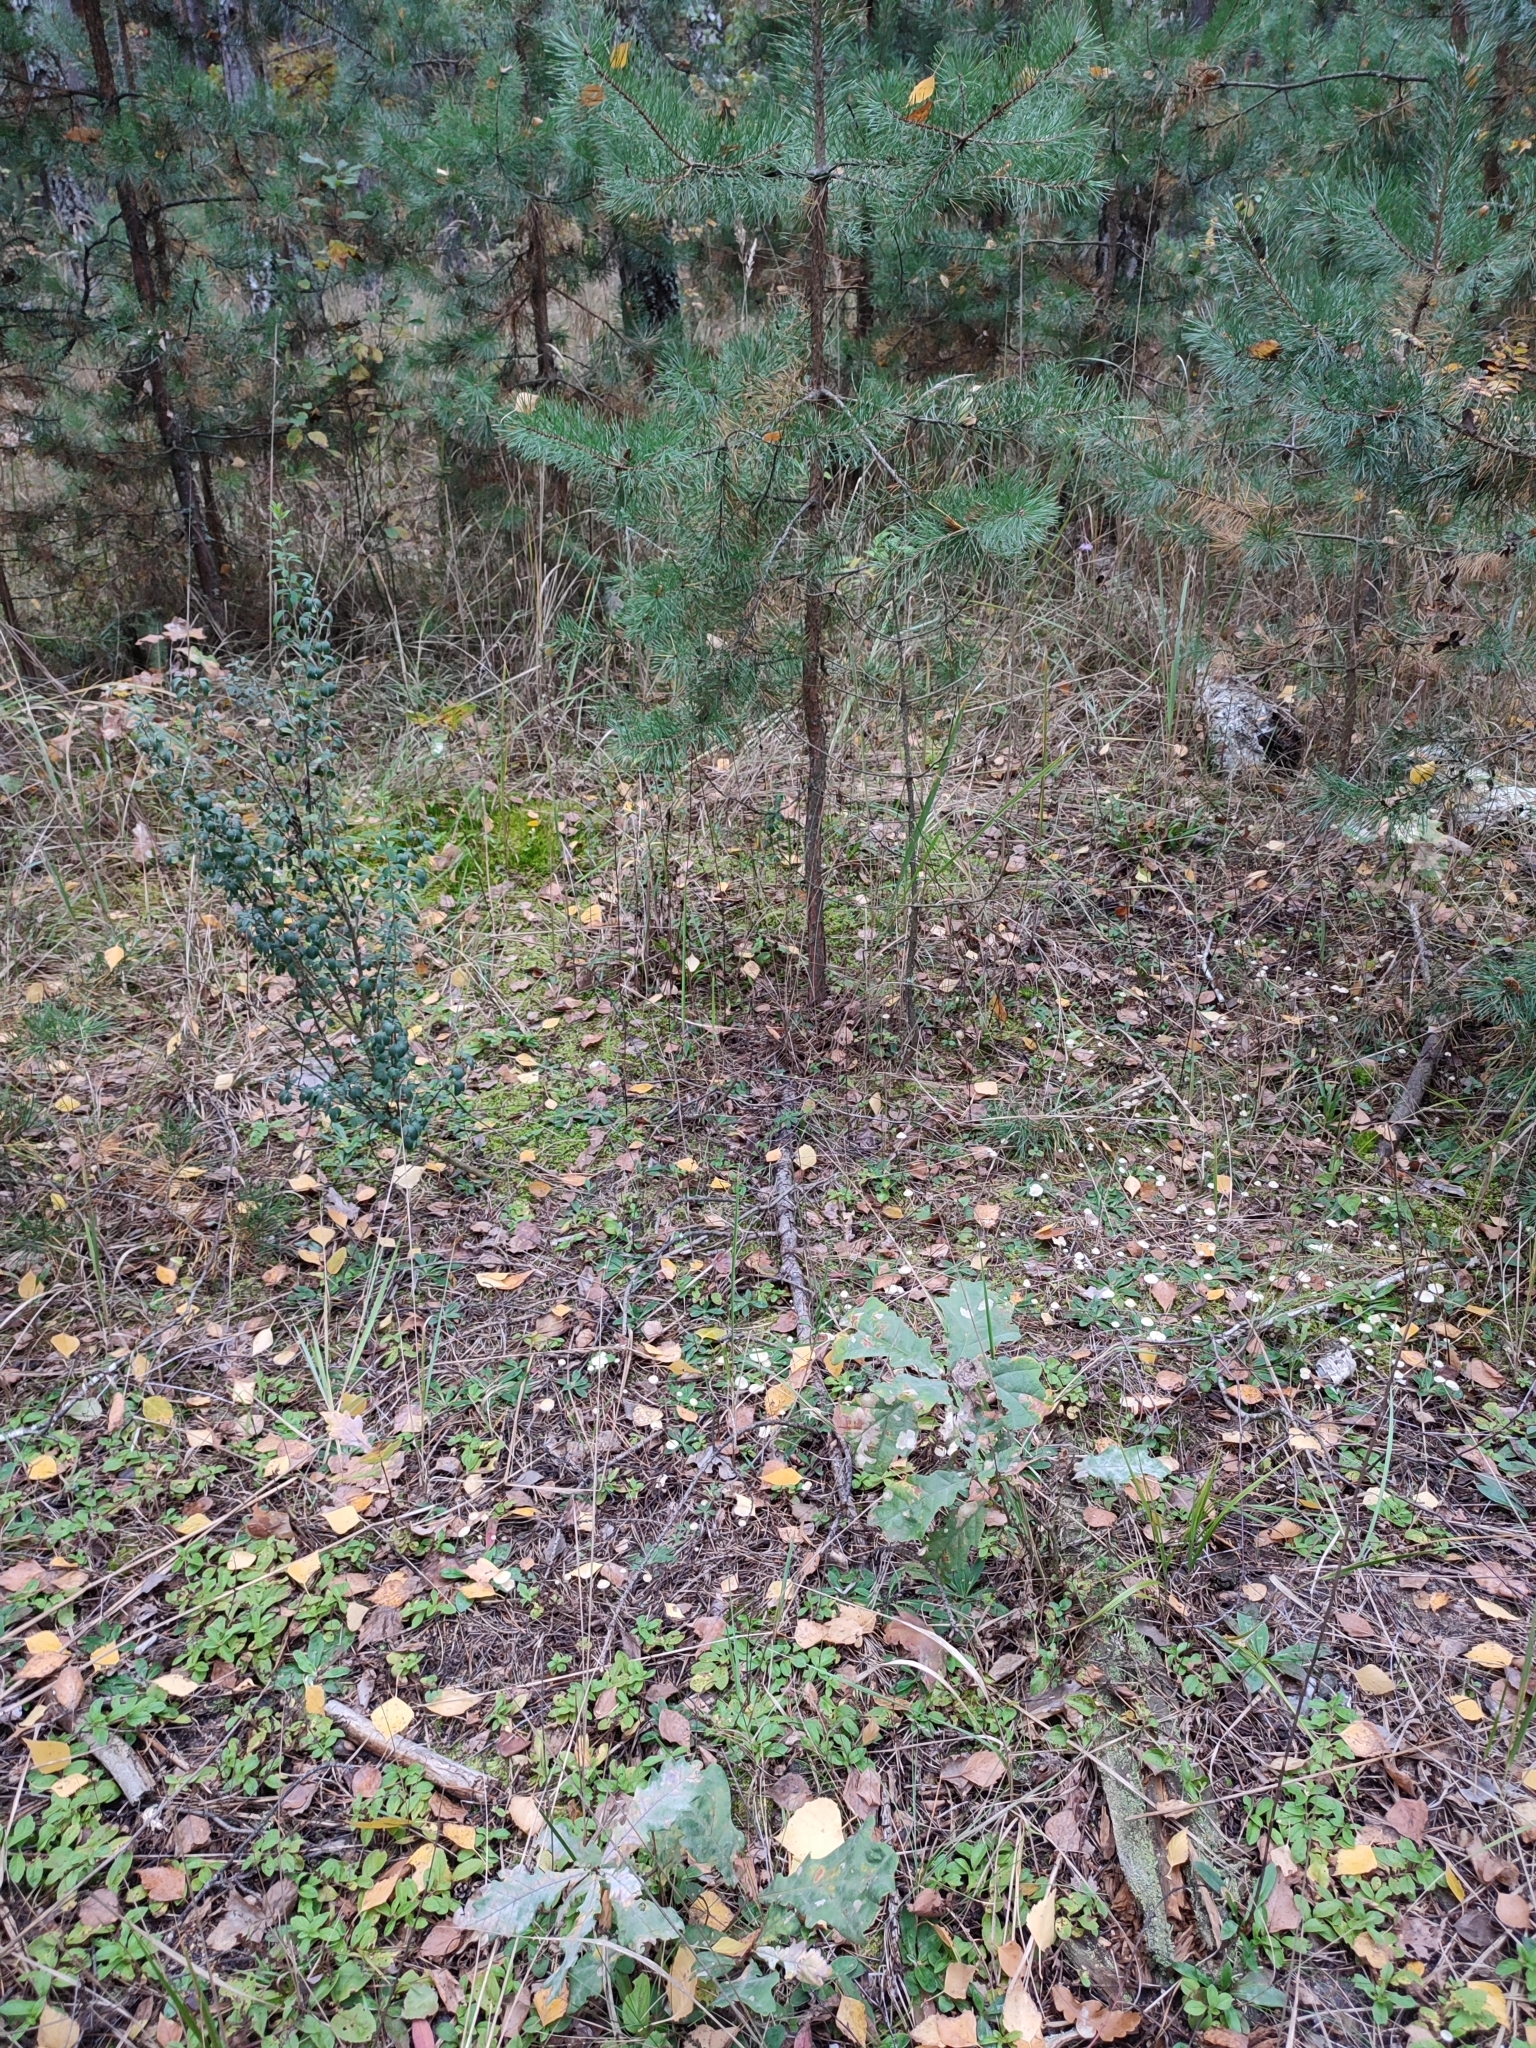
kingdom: Plantae
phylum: Tracheophyta
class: Magnoliopsida
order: Fagales
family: Fagaceae
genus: Quercus
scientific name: Quercus robur
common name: Pedunculate oak
